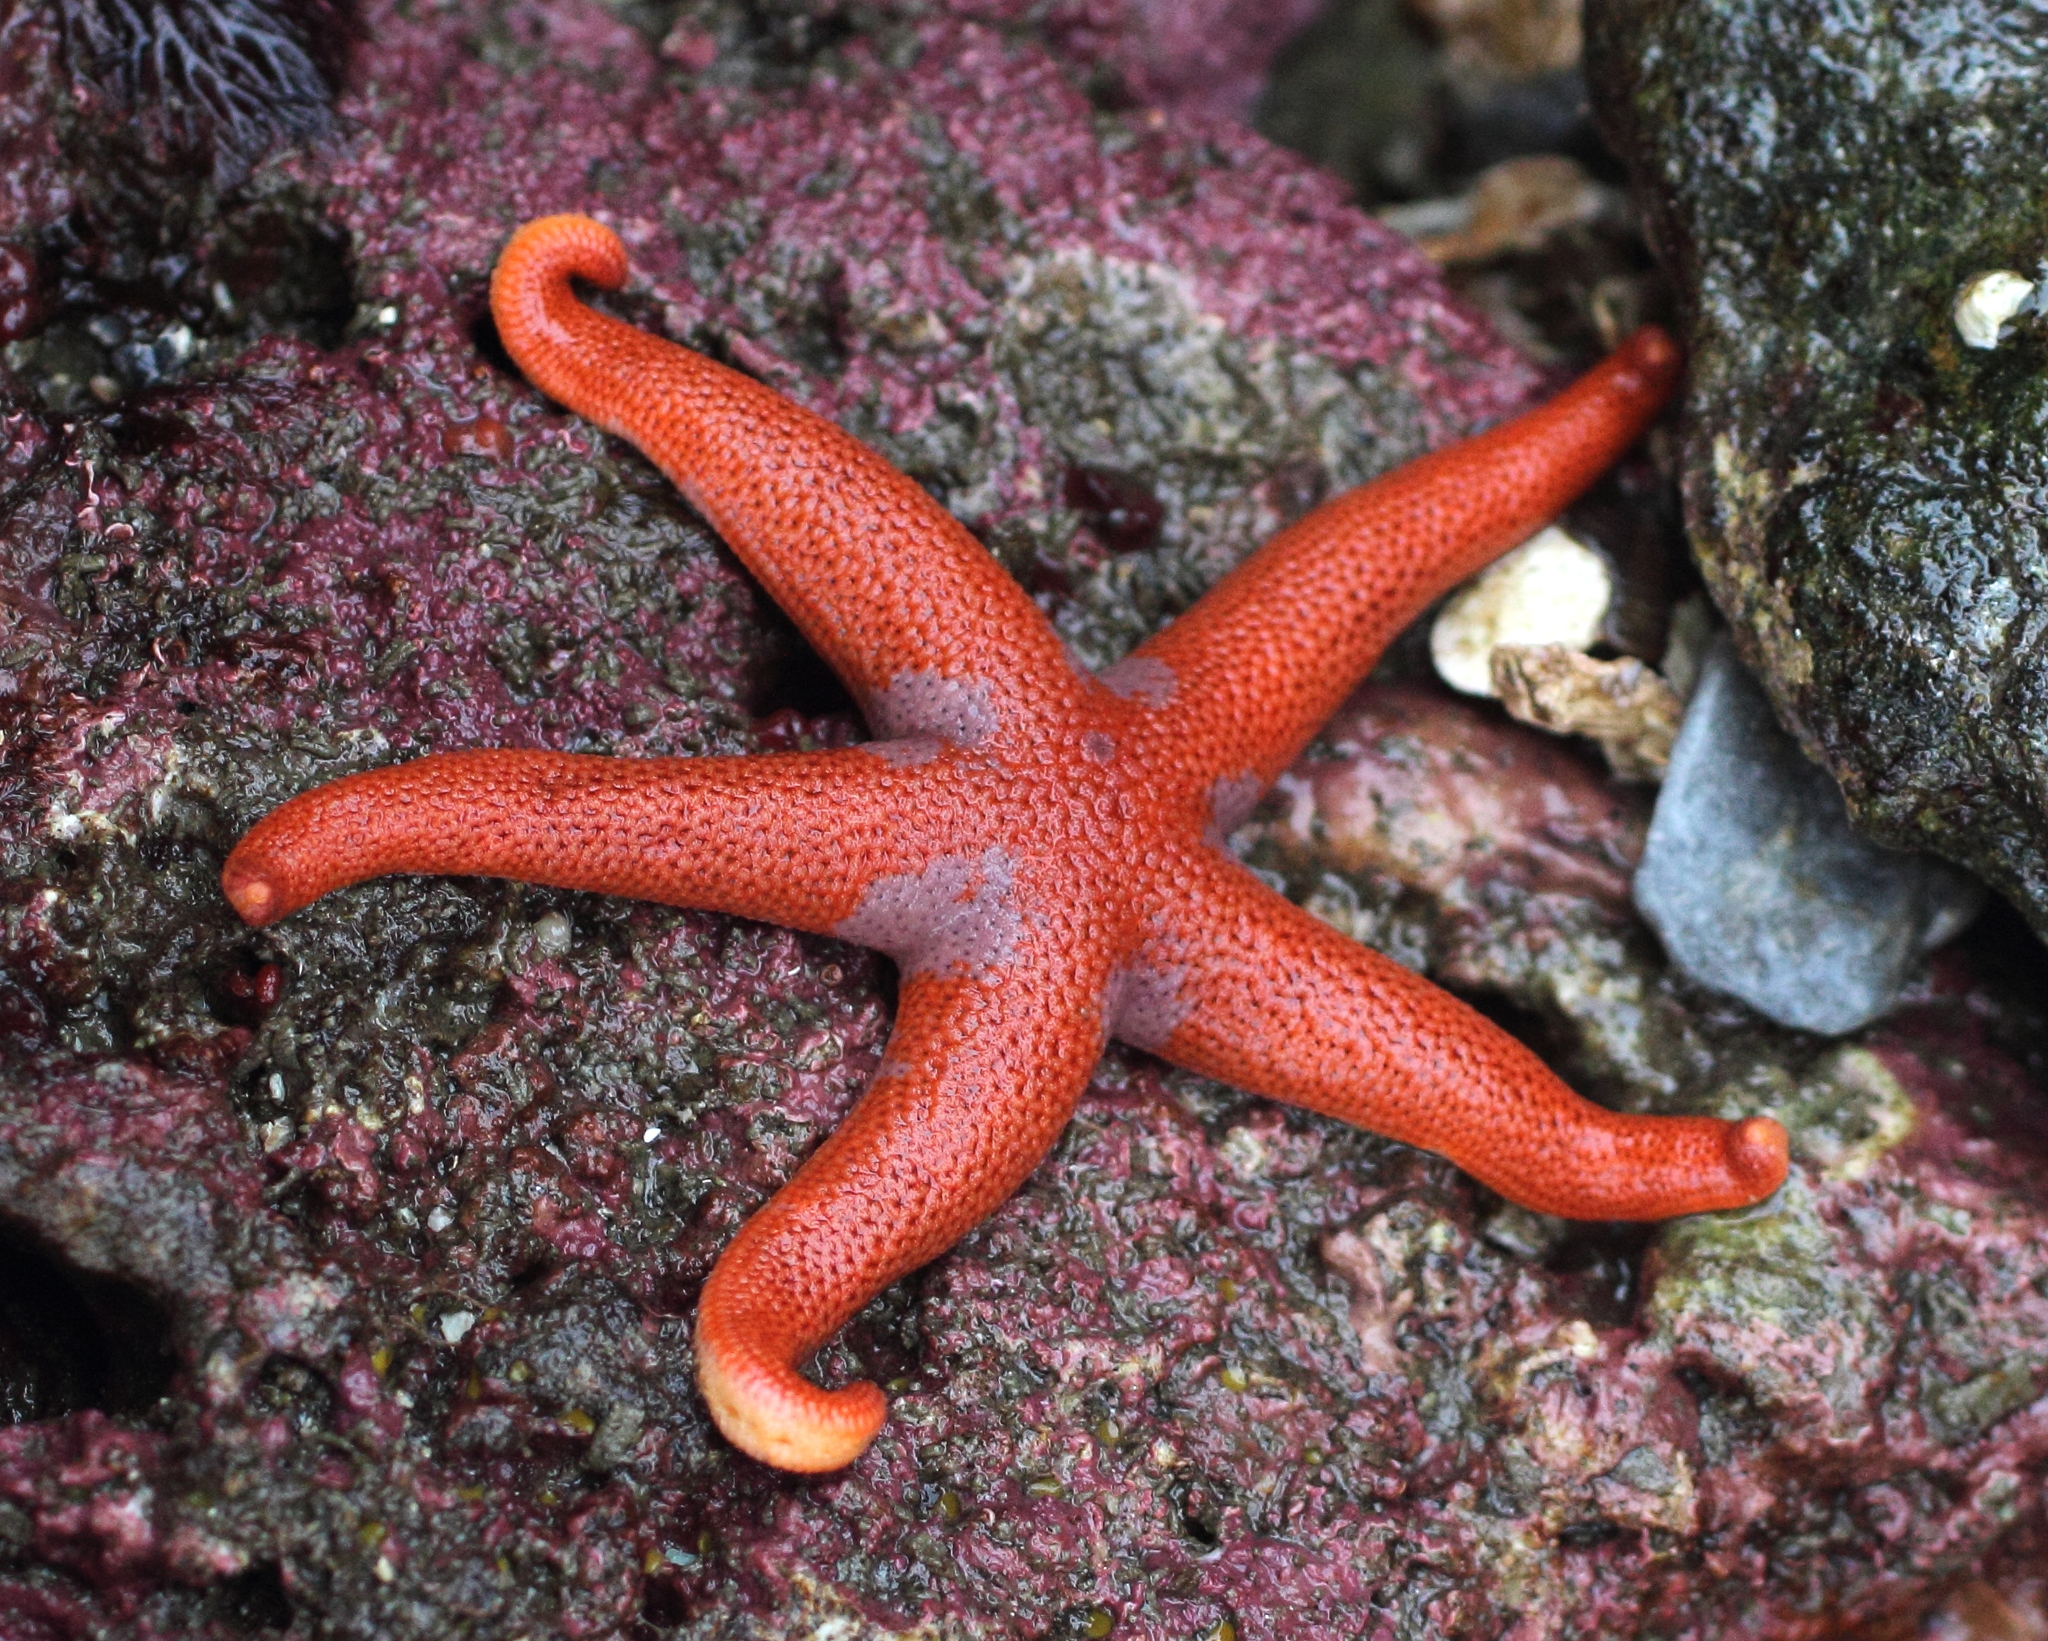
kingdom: Animalia
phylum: Echinodermata
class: Asteroidea
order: Spinulosida
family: Echinasteridae
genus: Henricia
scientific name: Henricia leviuscula
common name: Pacific blood star
